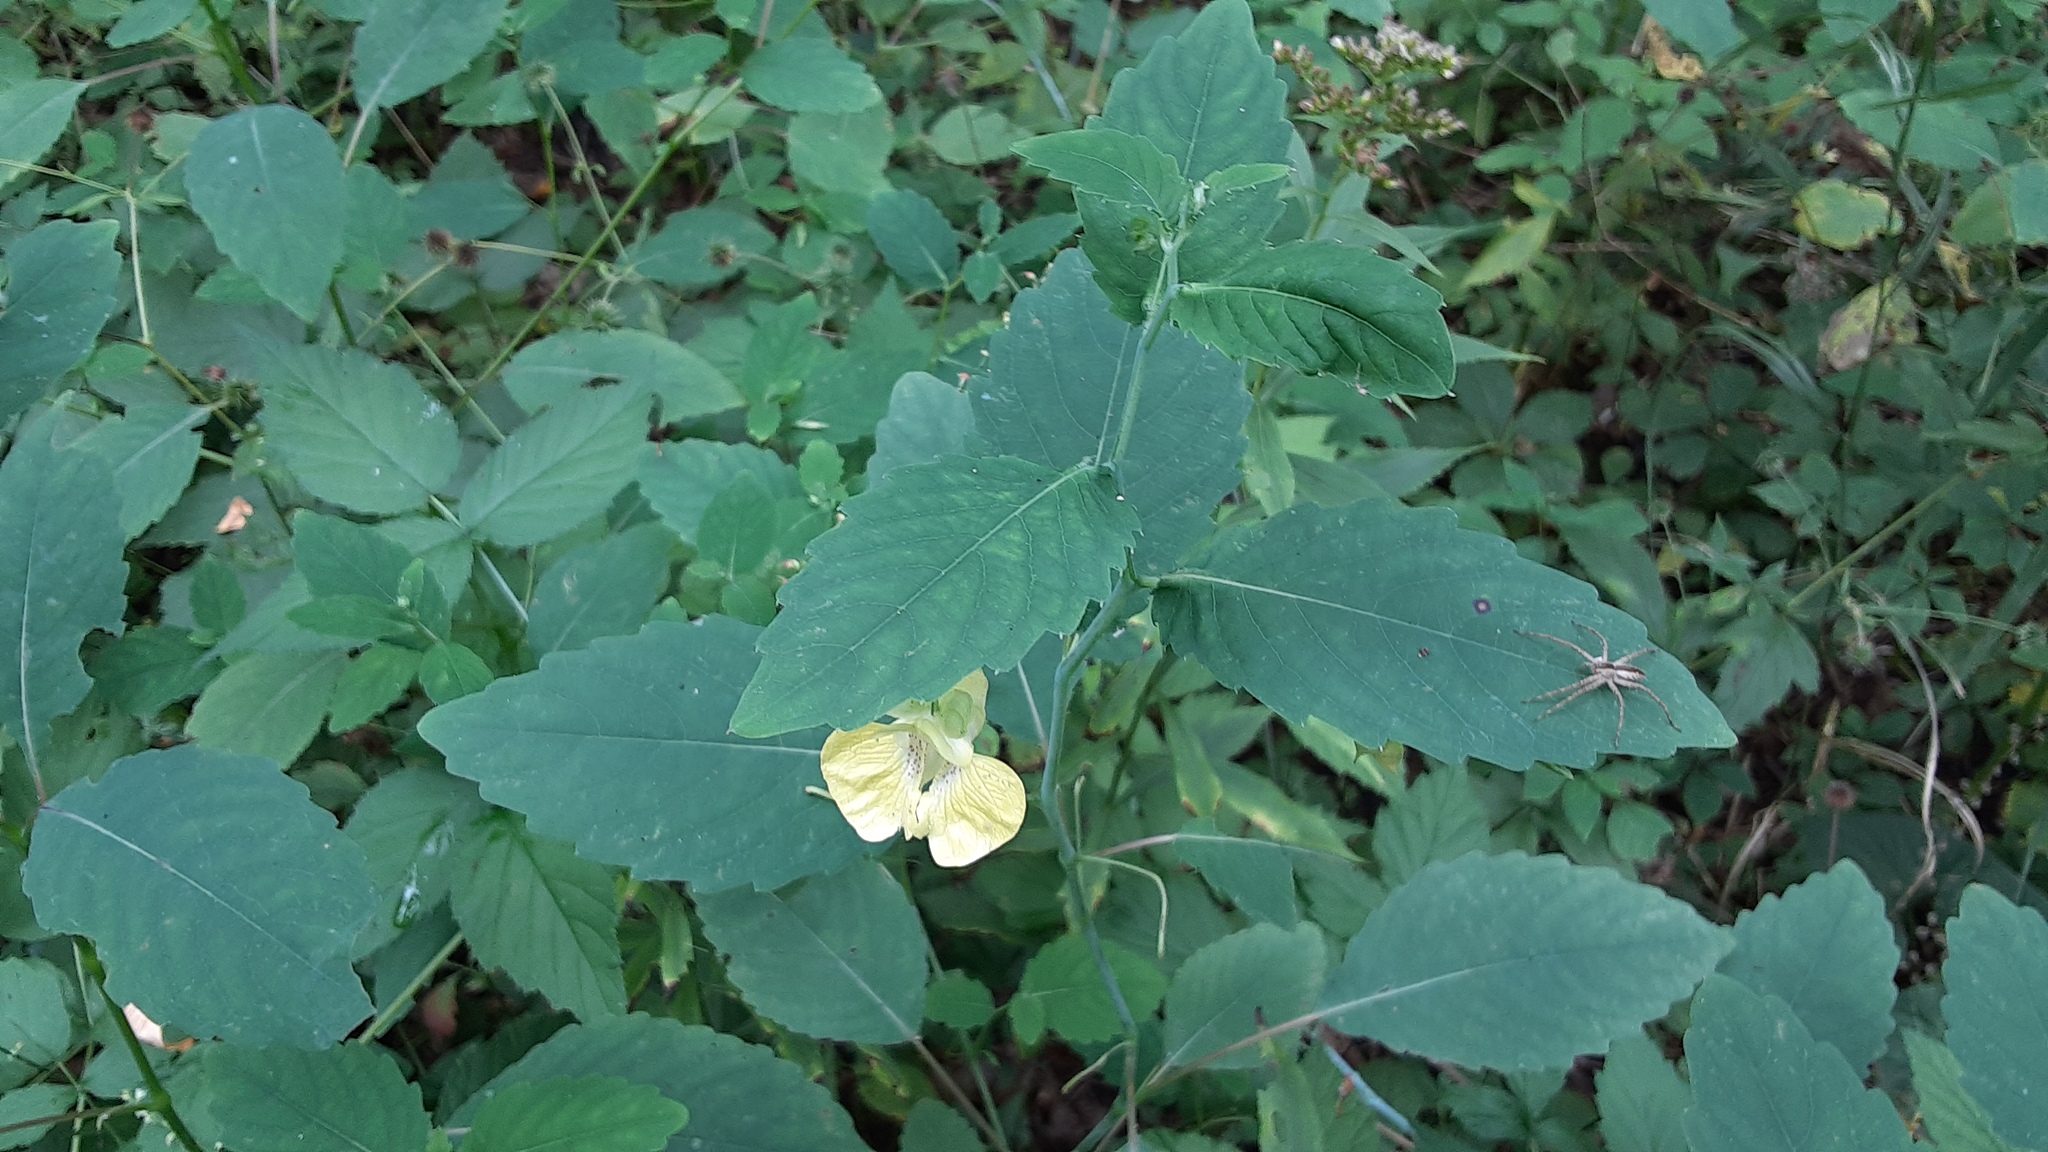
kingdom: Plantae
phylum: Tracheophyta
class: Magnoliopsida
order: Ericales
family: Balsaminaceae
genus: Impatiens
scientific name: Impatiens pallida
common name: Pale snapweed
